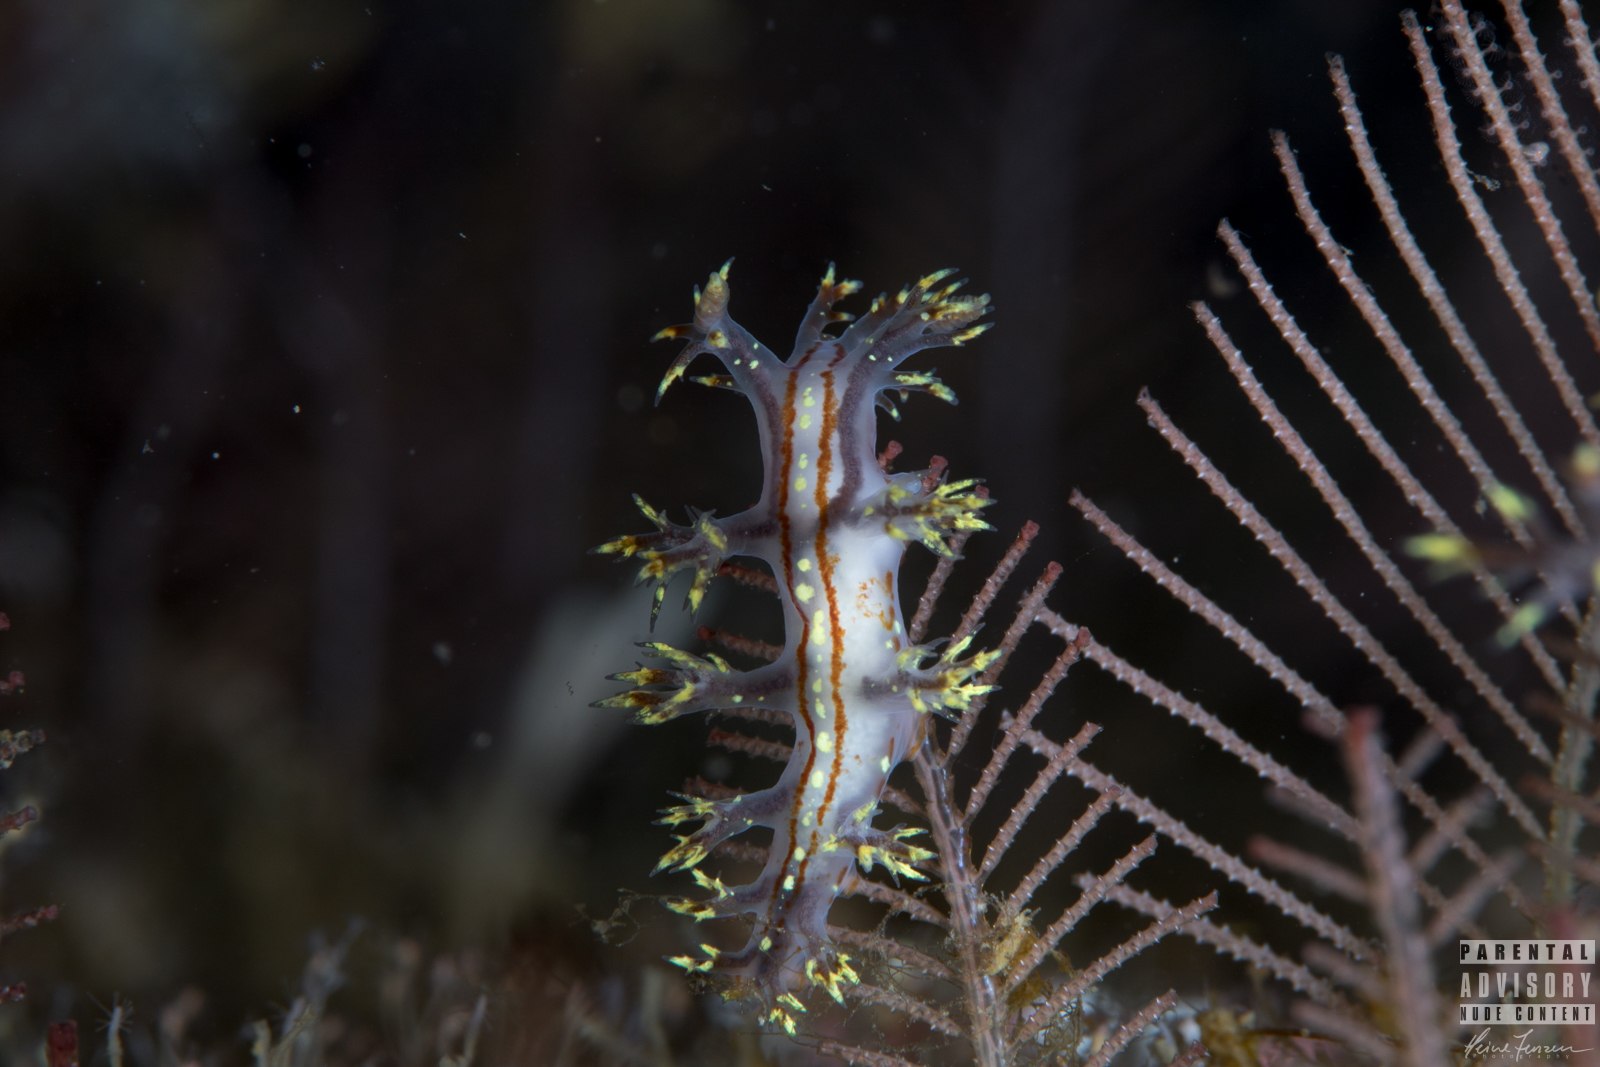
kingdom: Animalia
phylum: Mollusca
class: Gastropoda
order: Nudibranchia
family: Dendronotidae
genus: Dendronotus
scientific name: Dendronotus yrjargul
